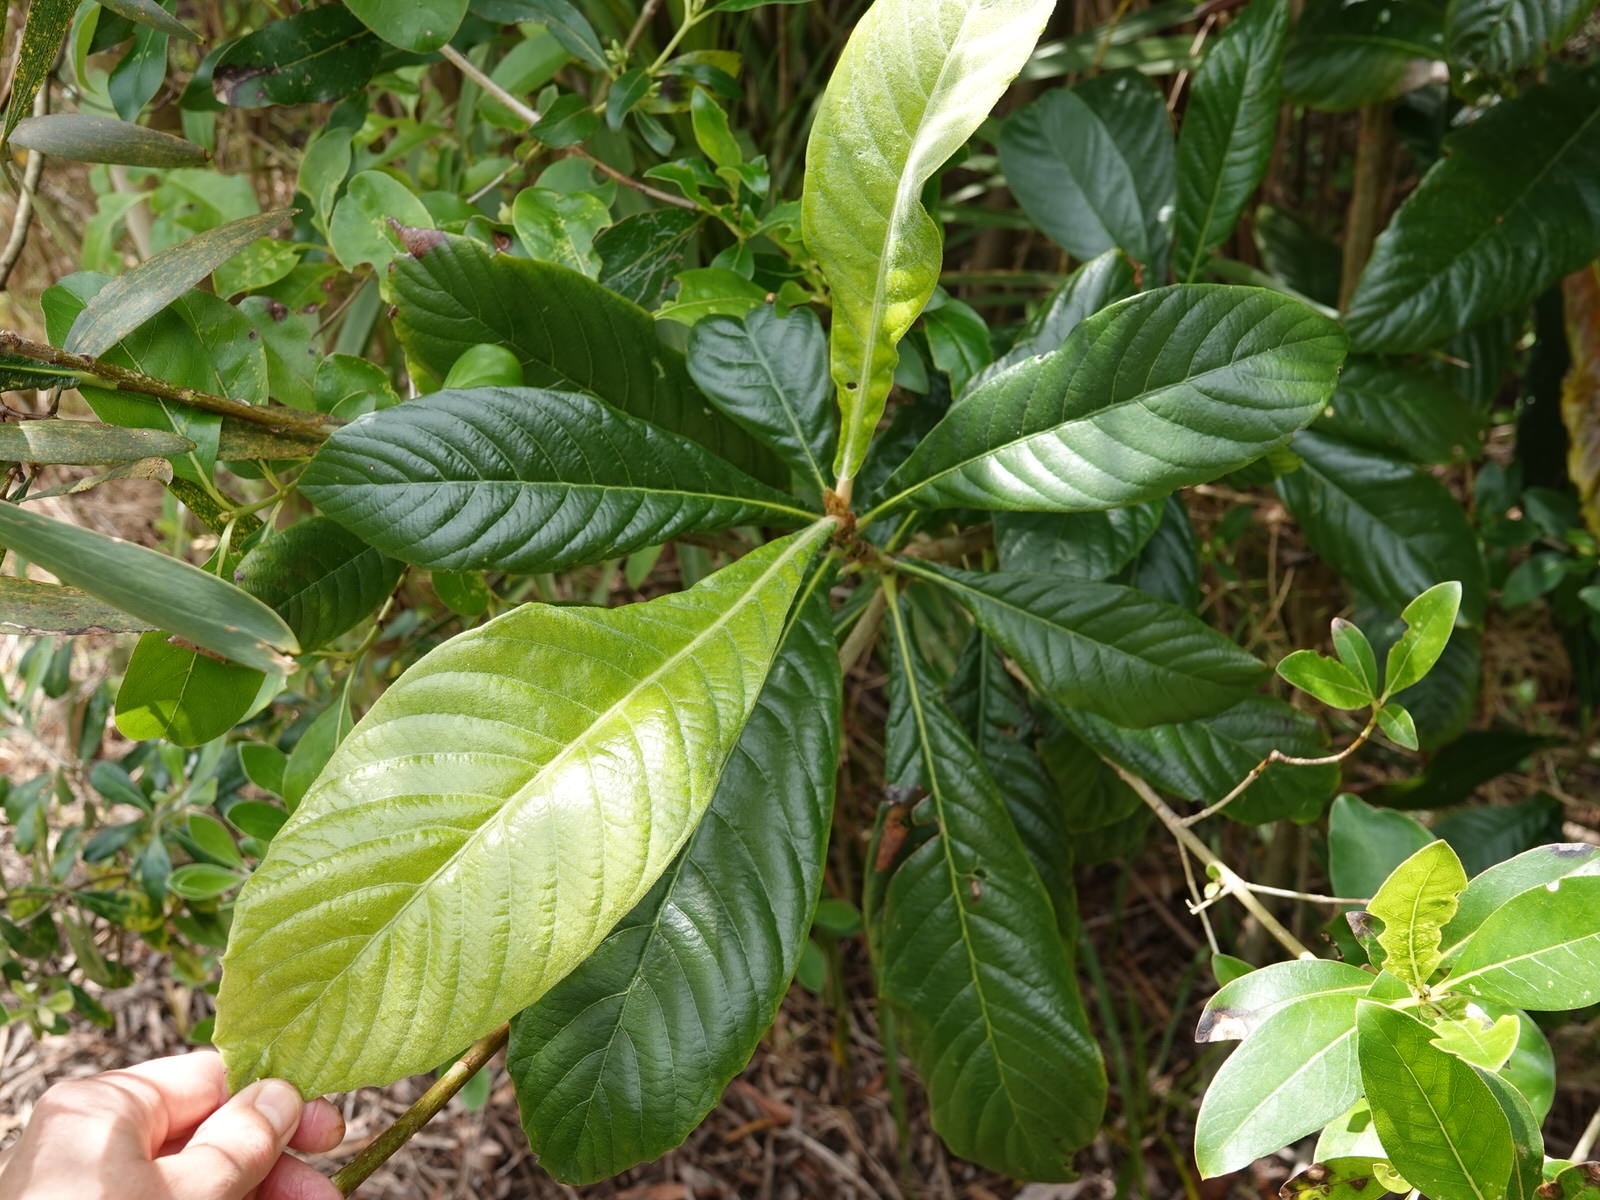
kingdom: Plantae
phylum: Tracheophyta
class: Magnoliopsida
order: Rosales
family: Rosaceae
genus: Rhaphiolepis
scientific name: Rhaphiolepis bibas
